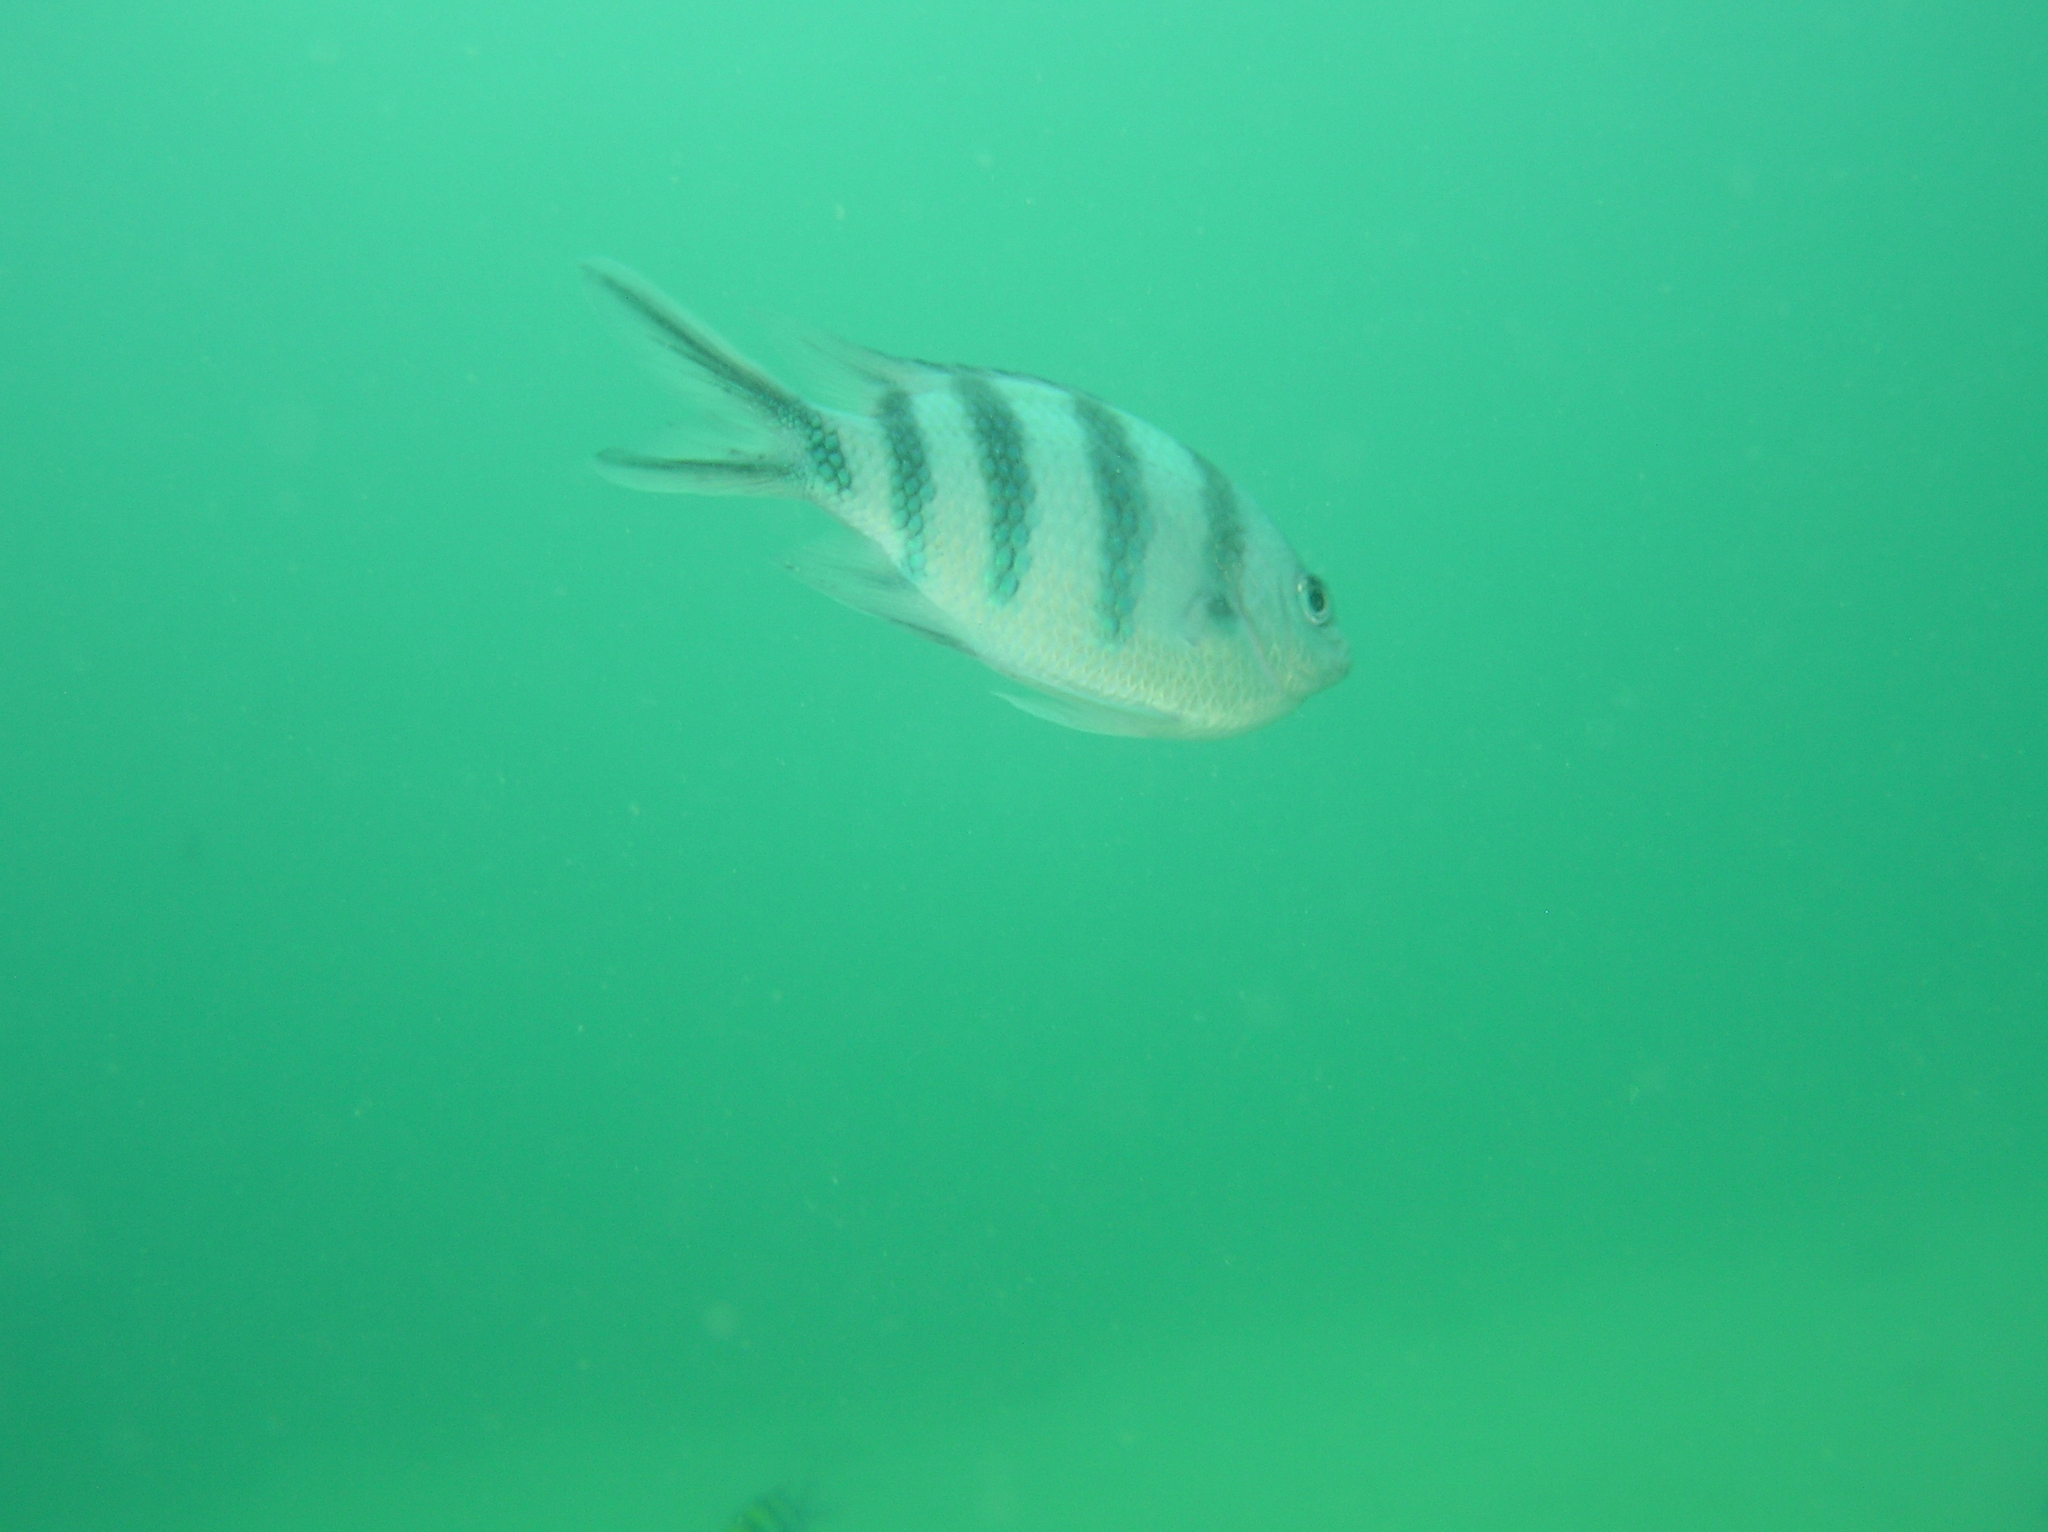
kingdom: Animalia
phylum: Chordata
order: Perciformes
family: Pomacentridae
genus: Abudefduf
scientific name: Abudefduf sexfasciatus
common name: Scissortail sergeant
